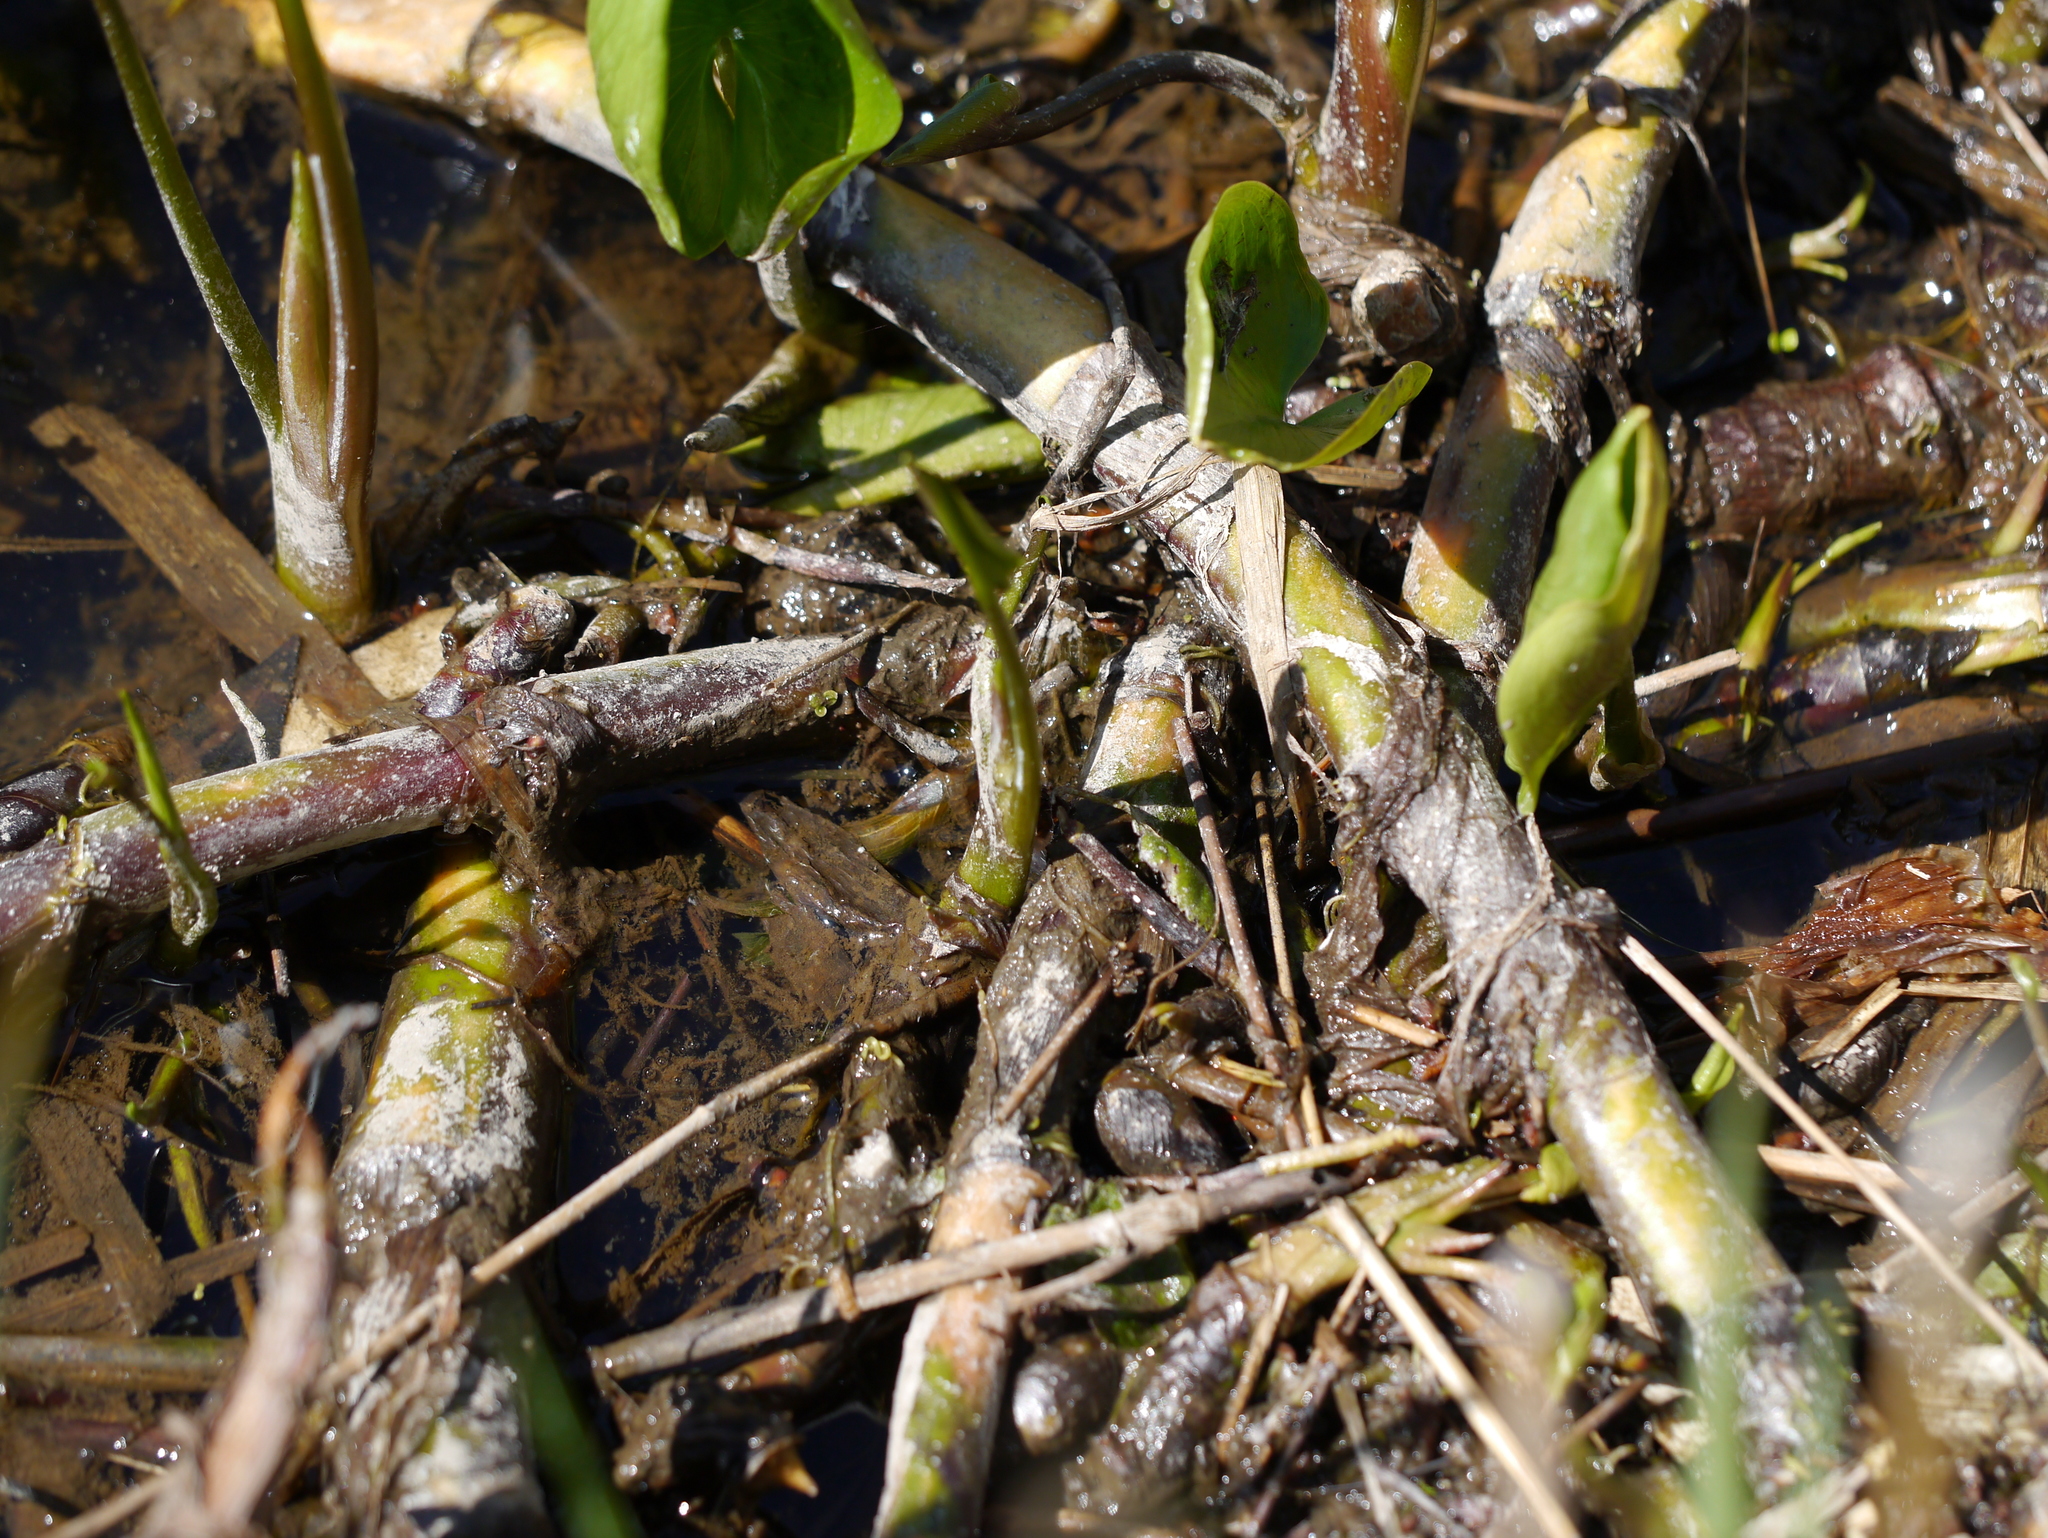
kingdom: Plantae
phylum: Tracheophyta
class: Liliopsida
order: Alismatales
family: Araceae
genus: Calla
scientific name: Calla palustris
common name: Bog arum
